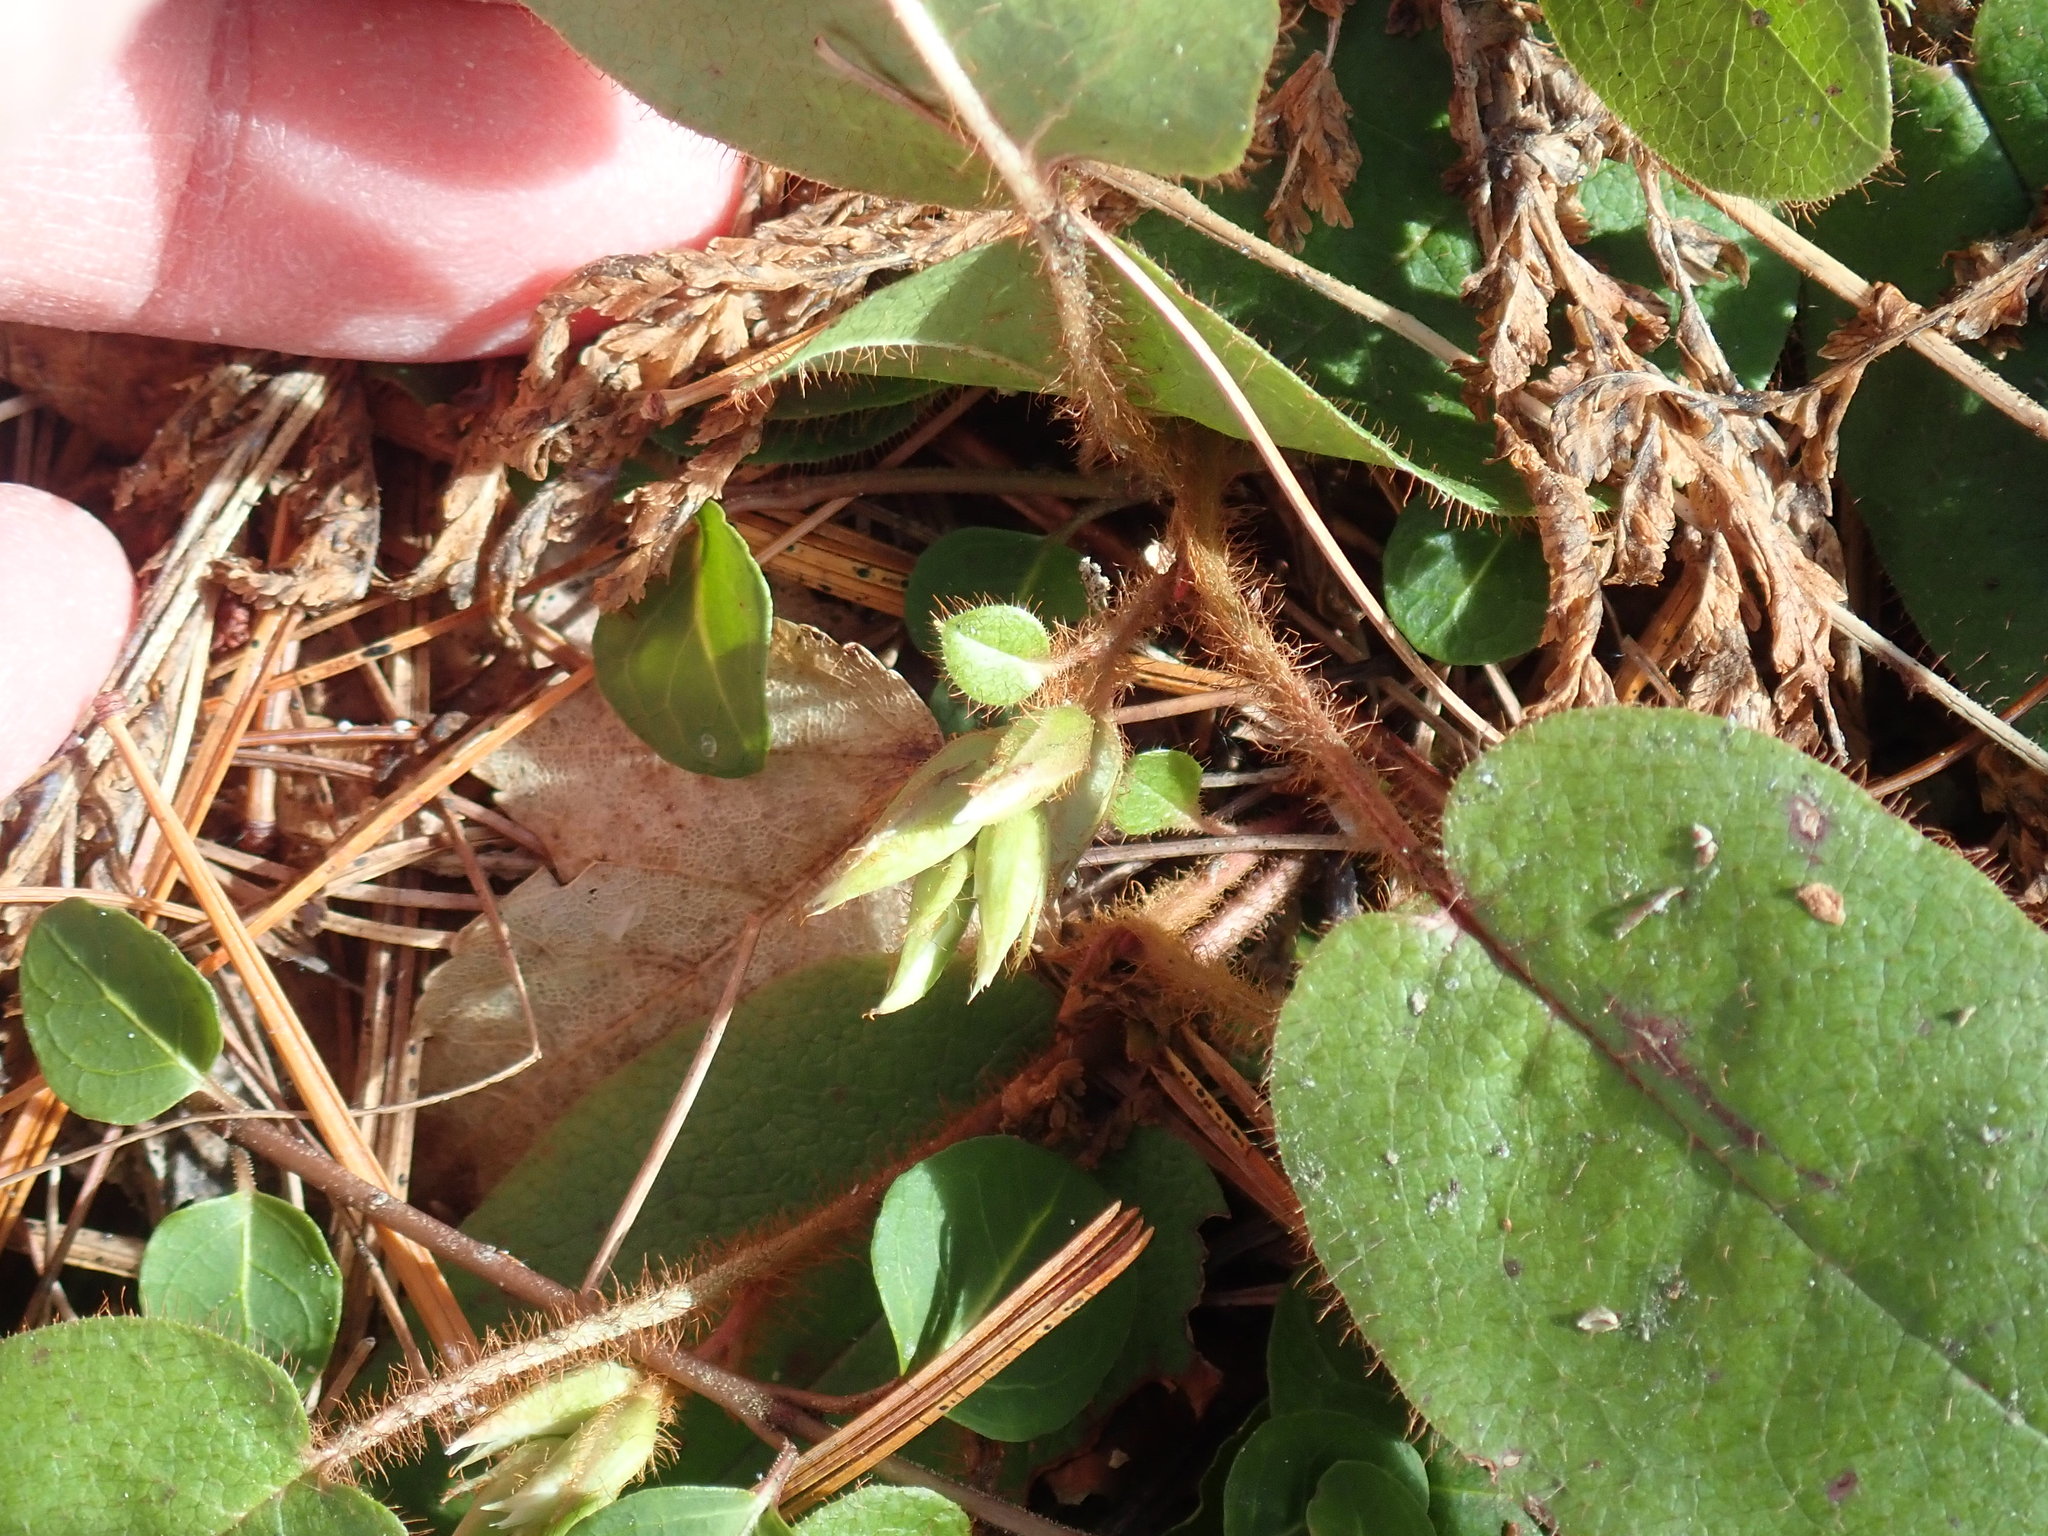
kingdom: Plantae
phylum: Tracheophyta
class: Magnoliopsida
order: Ericales
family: Ericaceae
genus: Epigaea
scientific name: Epigaea repens
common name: Gravelroot
